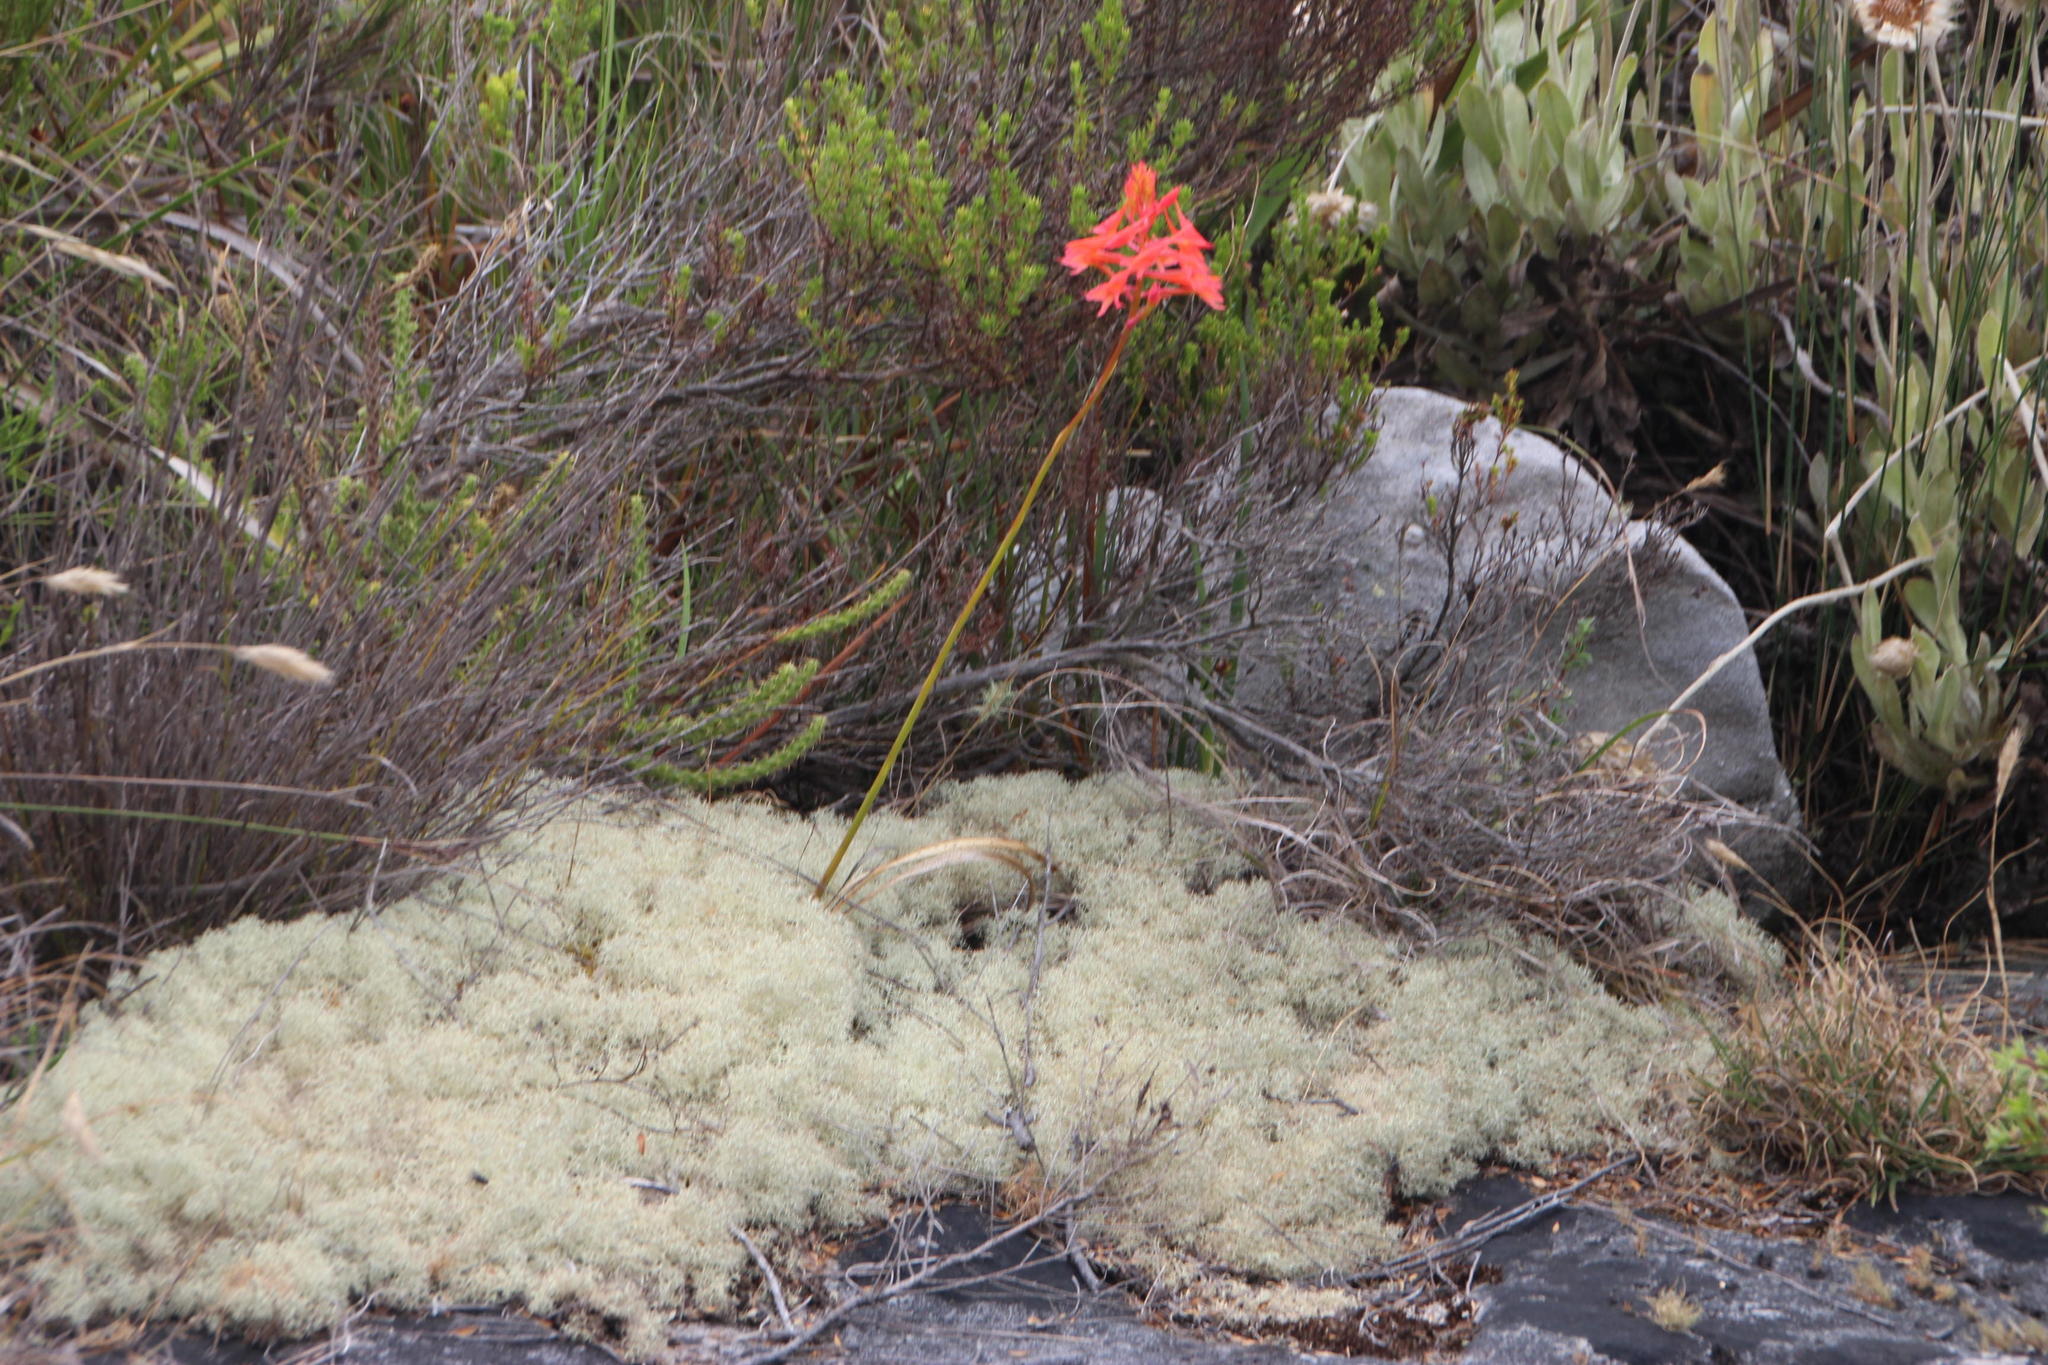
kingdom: Plantae
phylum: Tracheophyta
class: Liliopsida
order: Asparagales
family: Orchidaceae
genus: Disa
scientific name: Disa ferruginea
